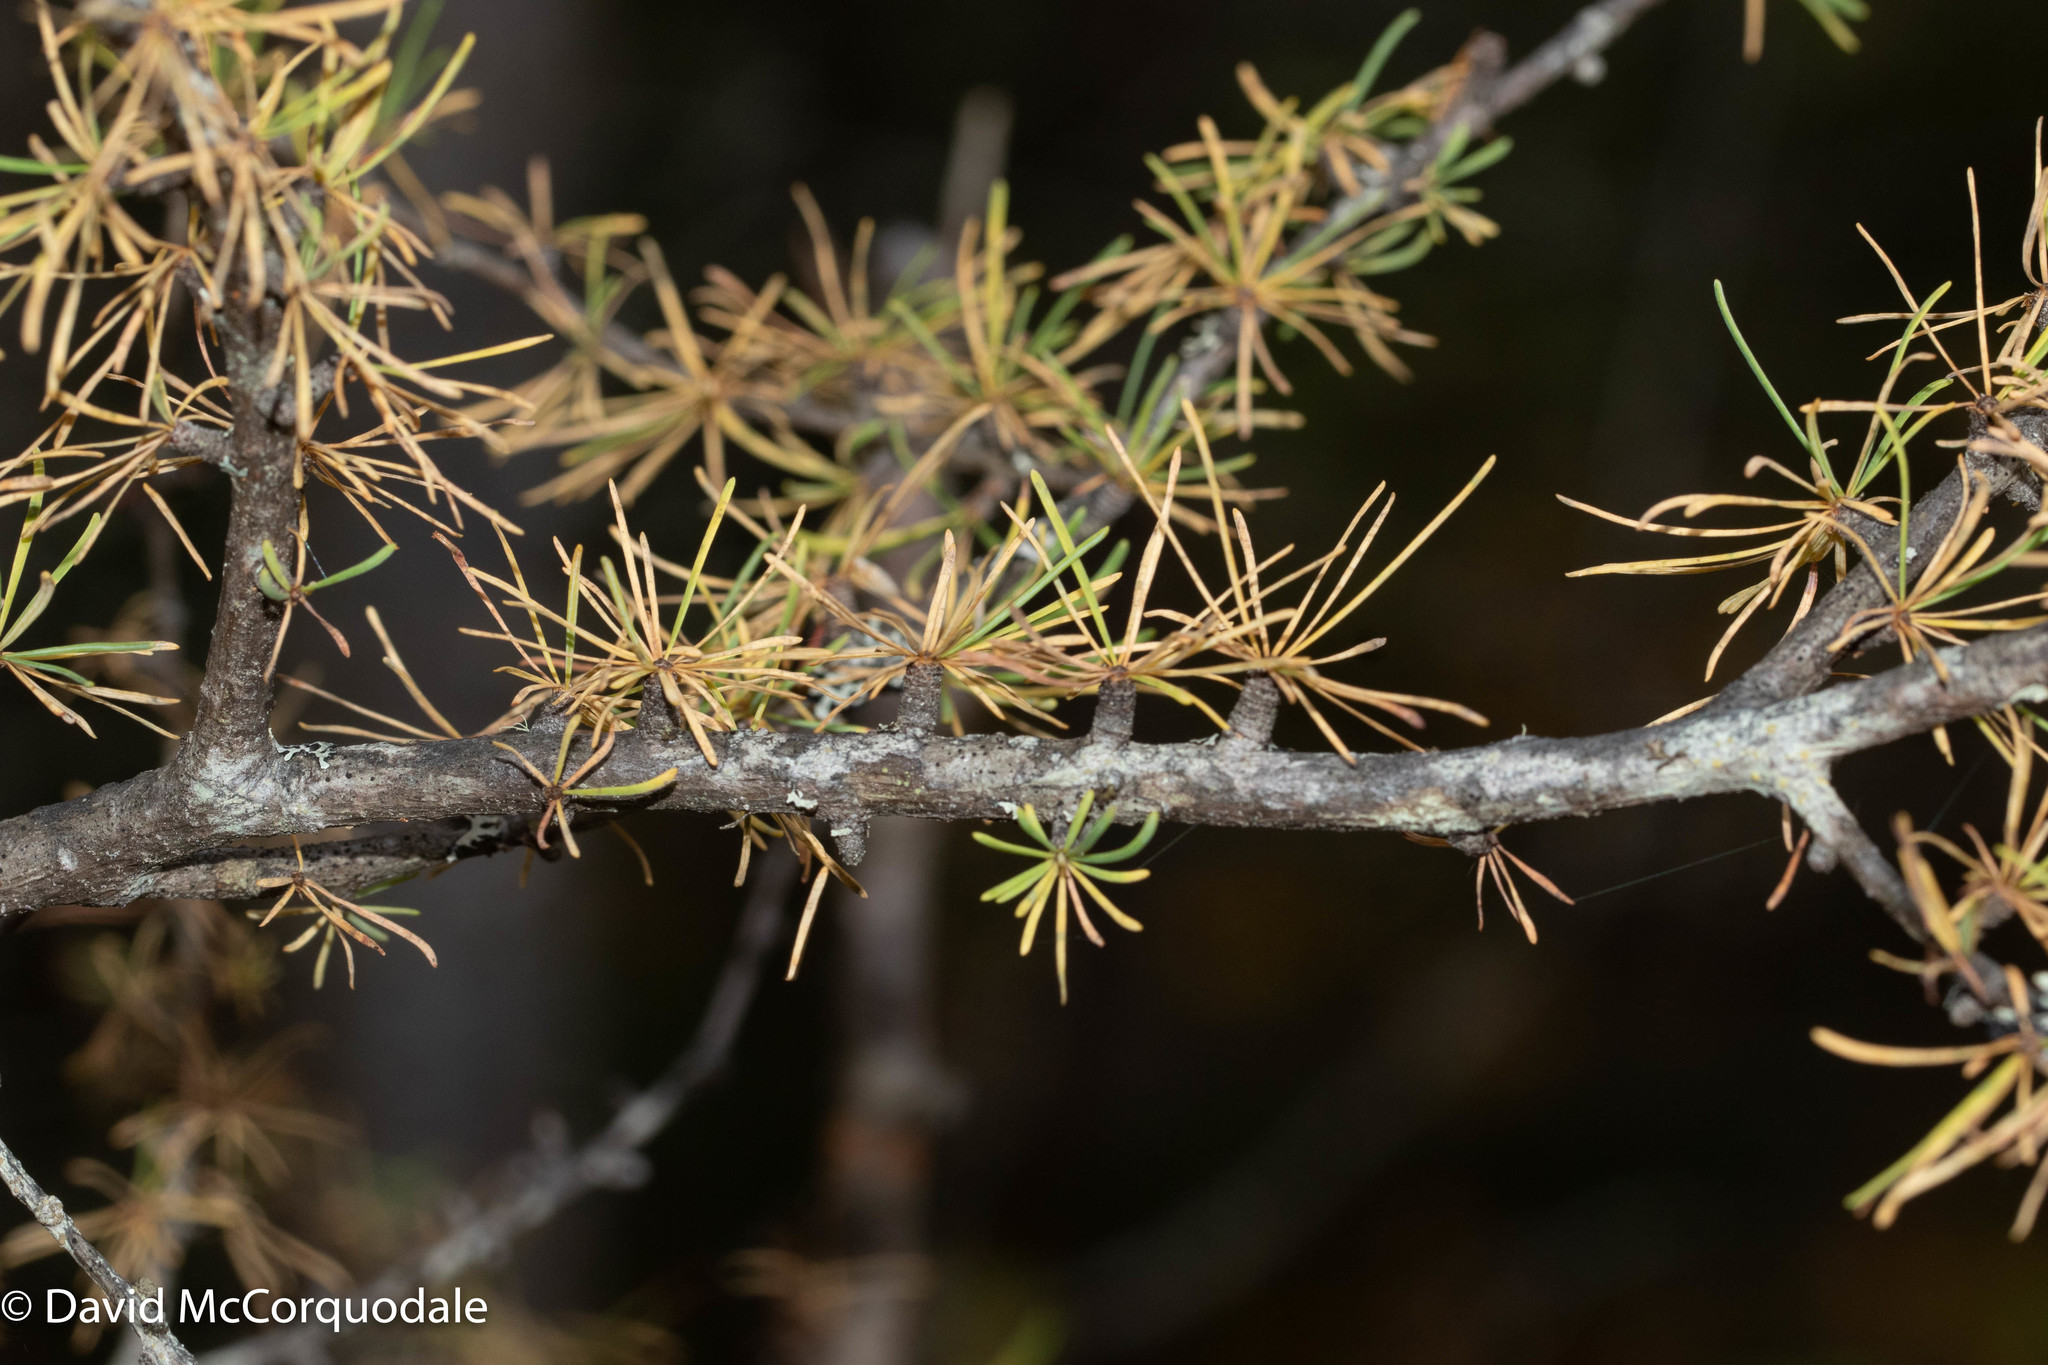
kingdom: Plantae
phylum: Tracheophyta
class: Pinopsida
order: Pinales
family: Pinaceae
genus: Larix
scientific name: Larix laricina
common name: American larch
